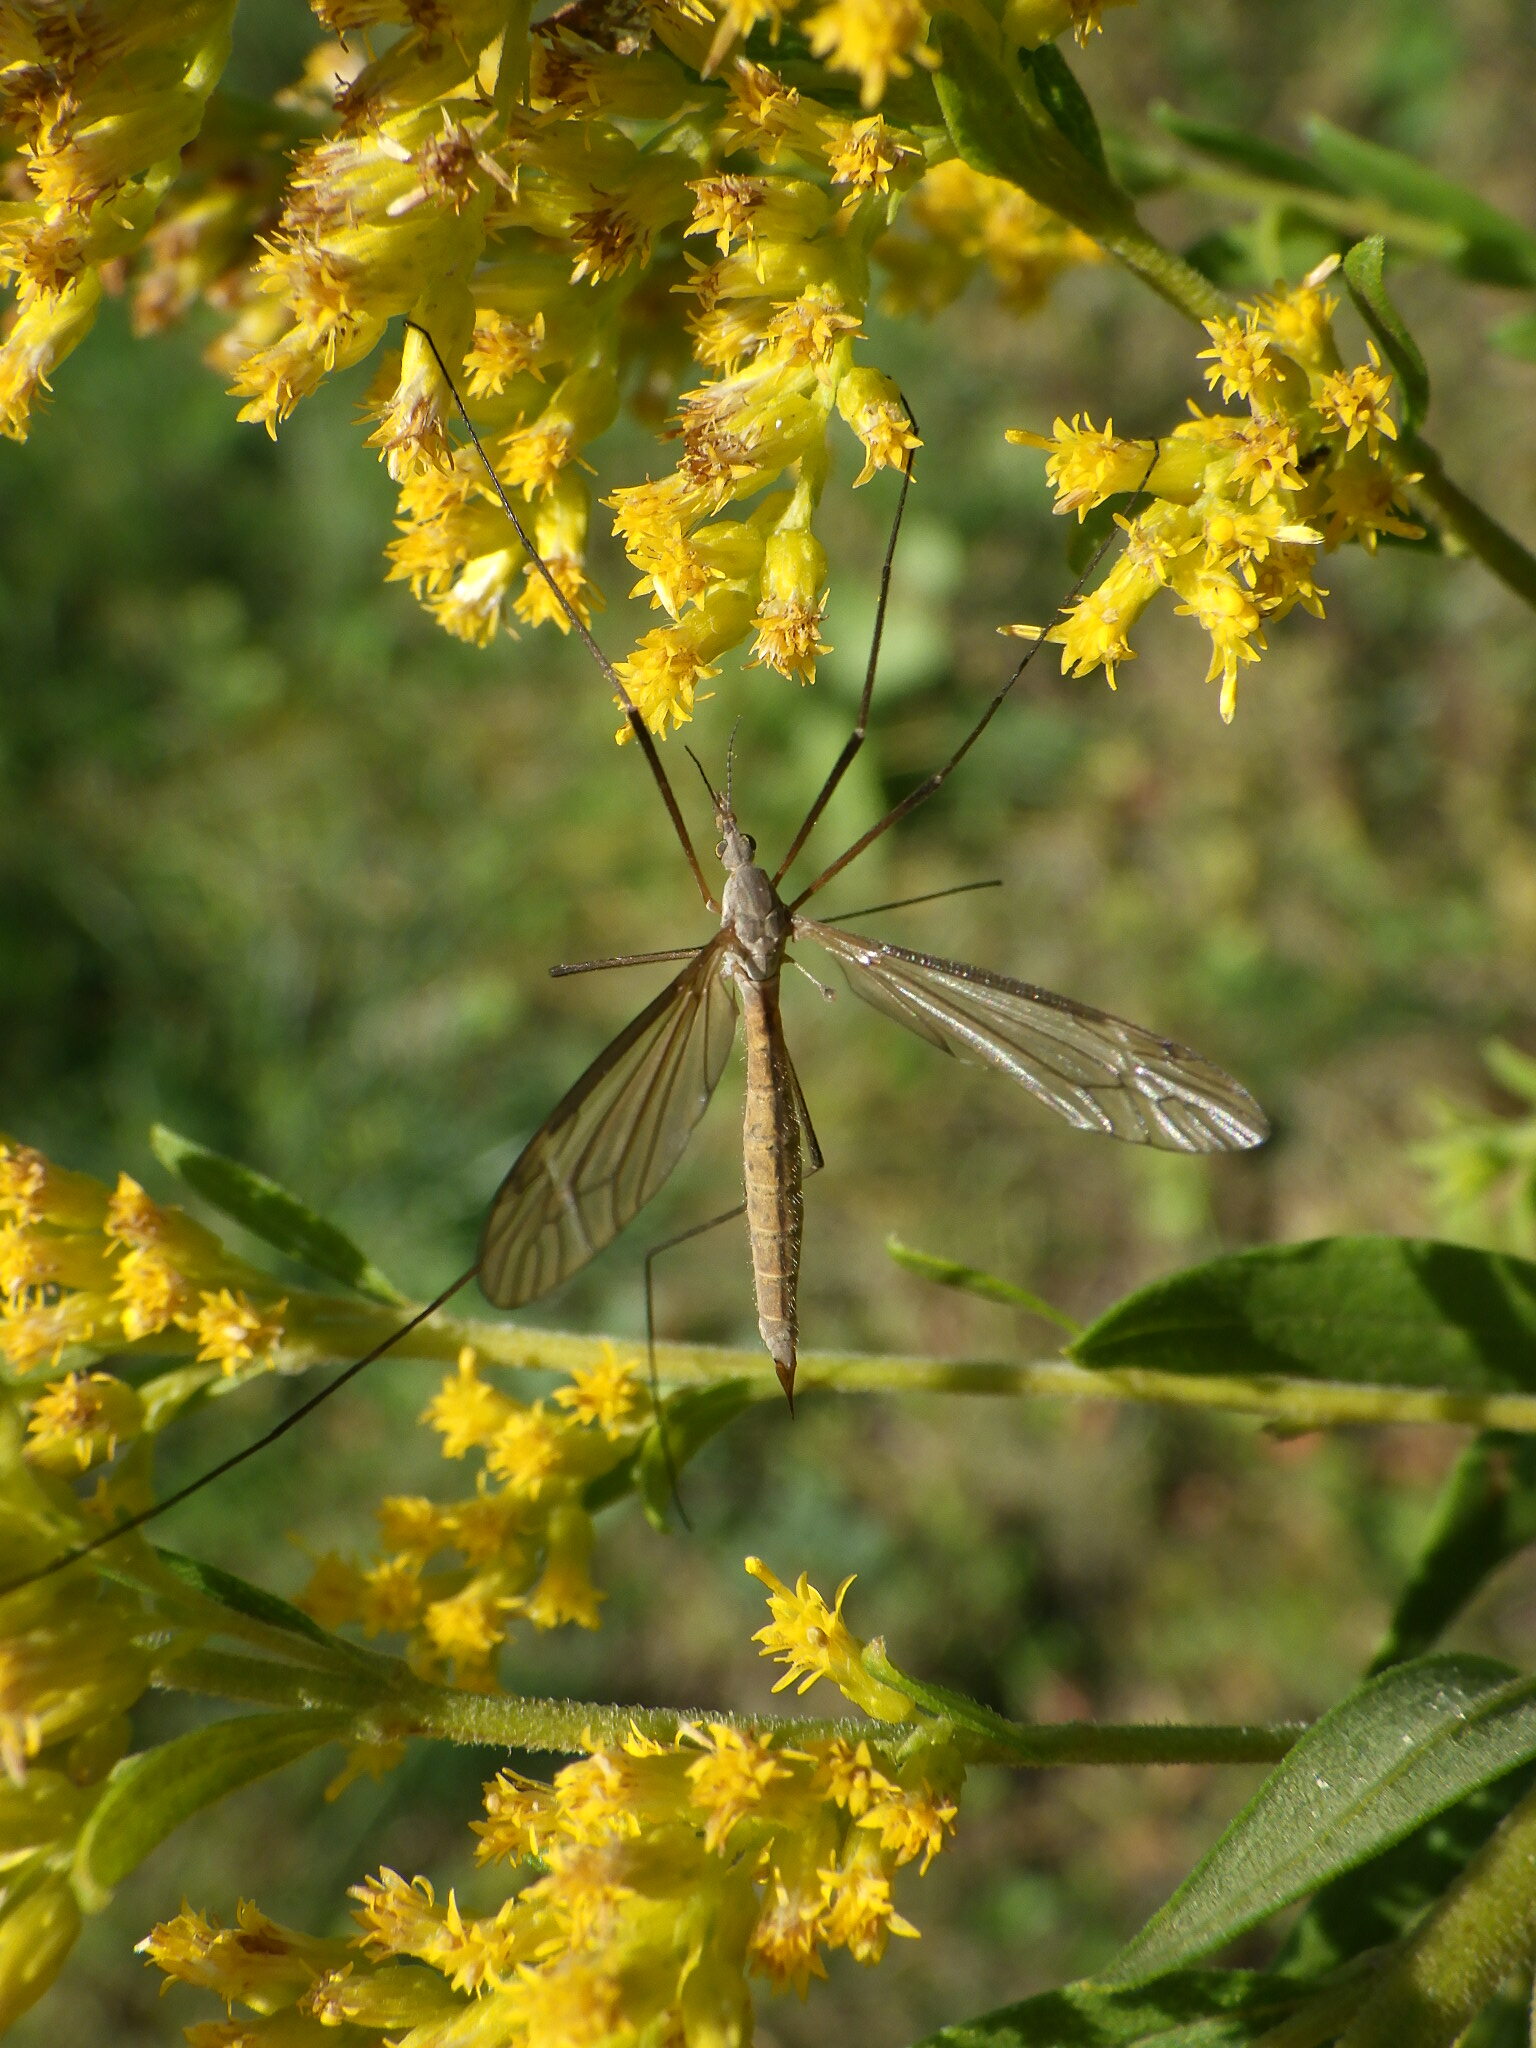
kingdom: Animalia
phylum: Arthropoda
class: Insecta
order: Diptera
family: Tipulidae
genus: Tipula
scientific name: Tipula
